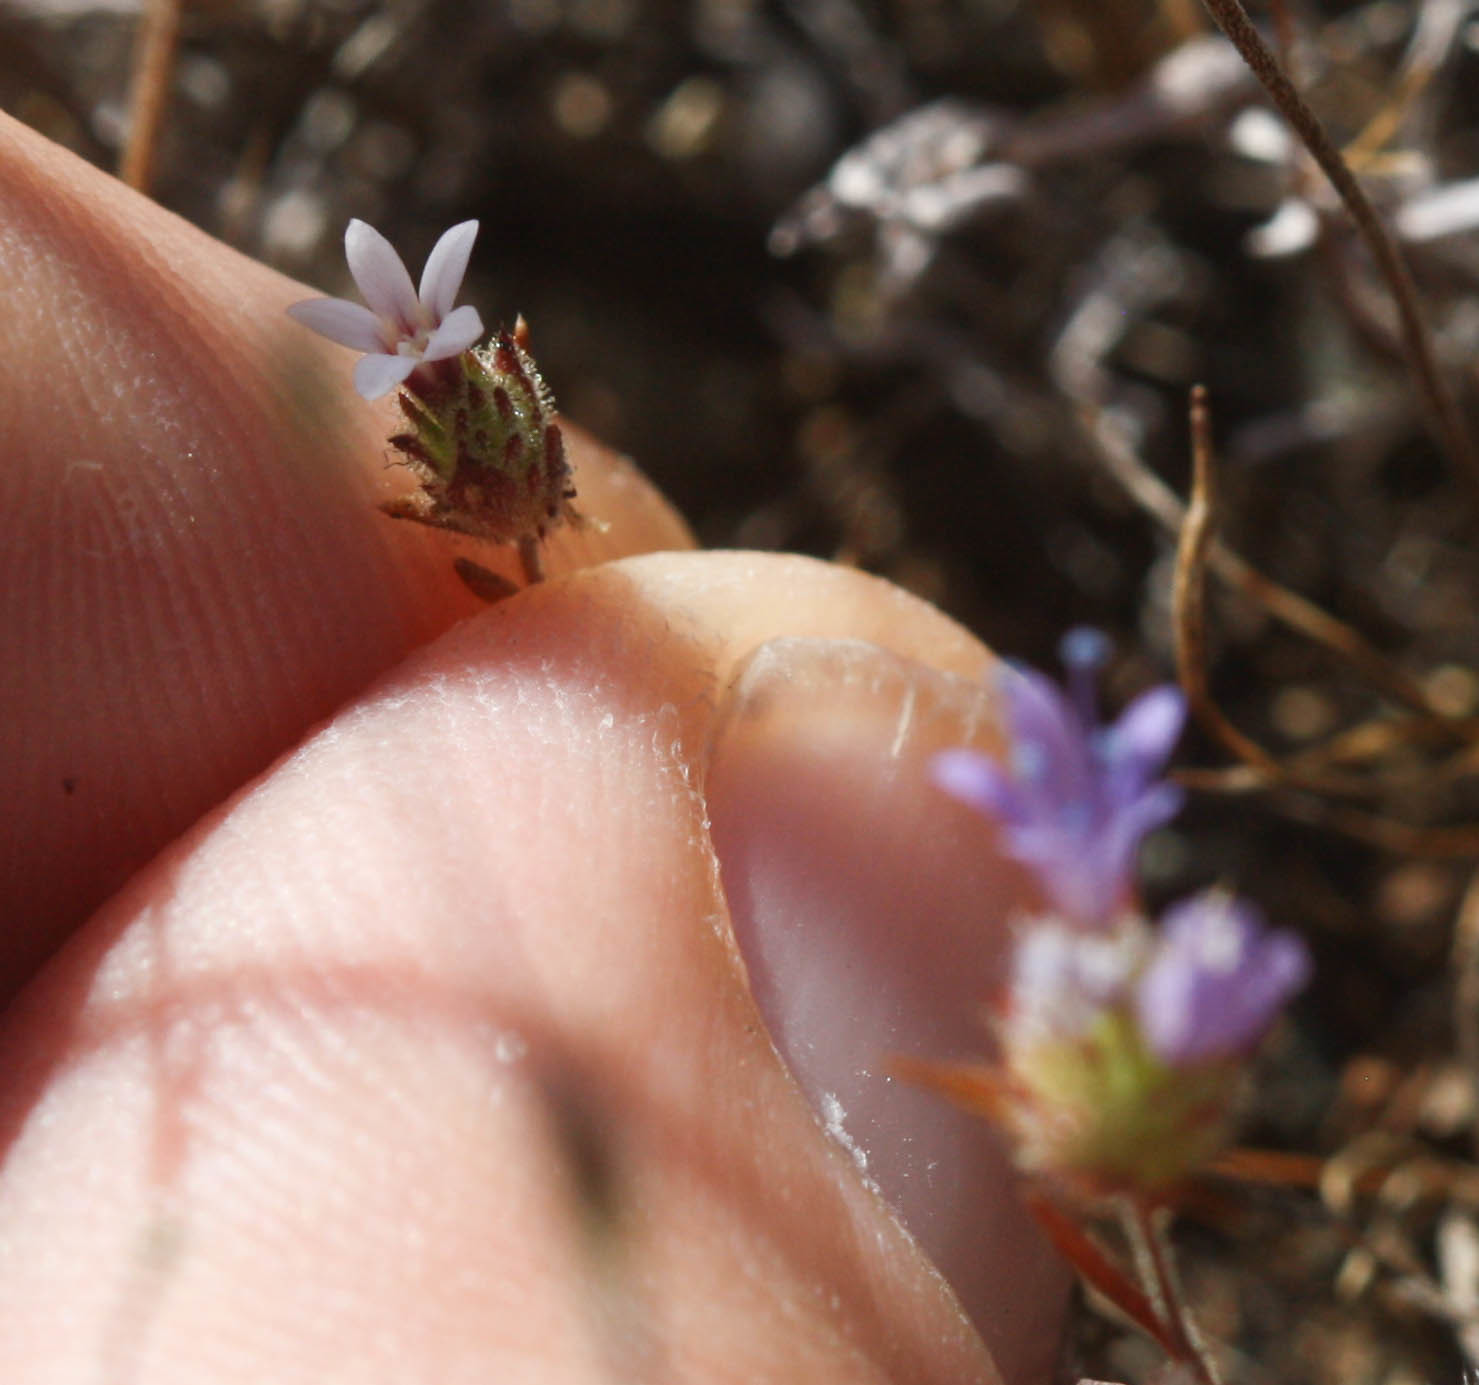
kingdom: Plantae
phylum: Tracheophyta
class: Magnoliopsida
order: Ericales
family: Polemoniaceae
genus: Navarretia
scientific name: Navarretia rosulata
